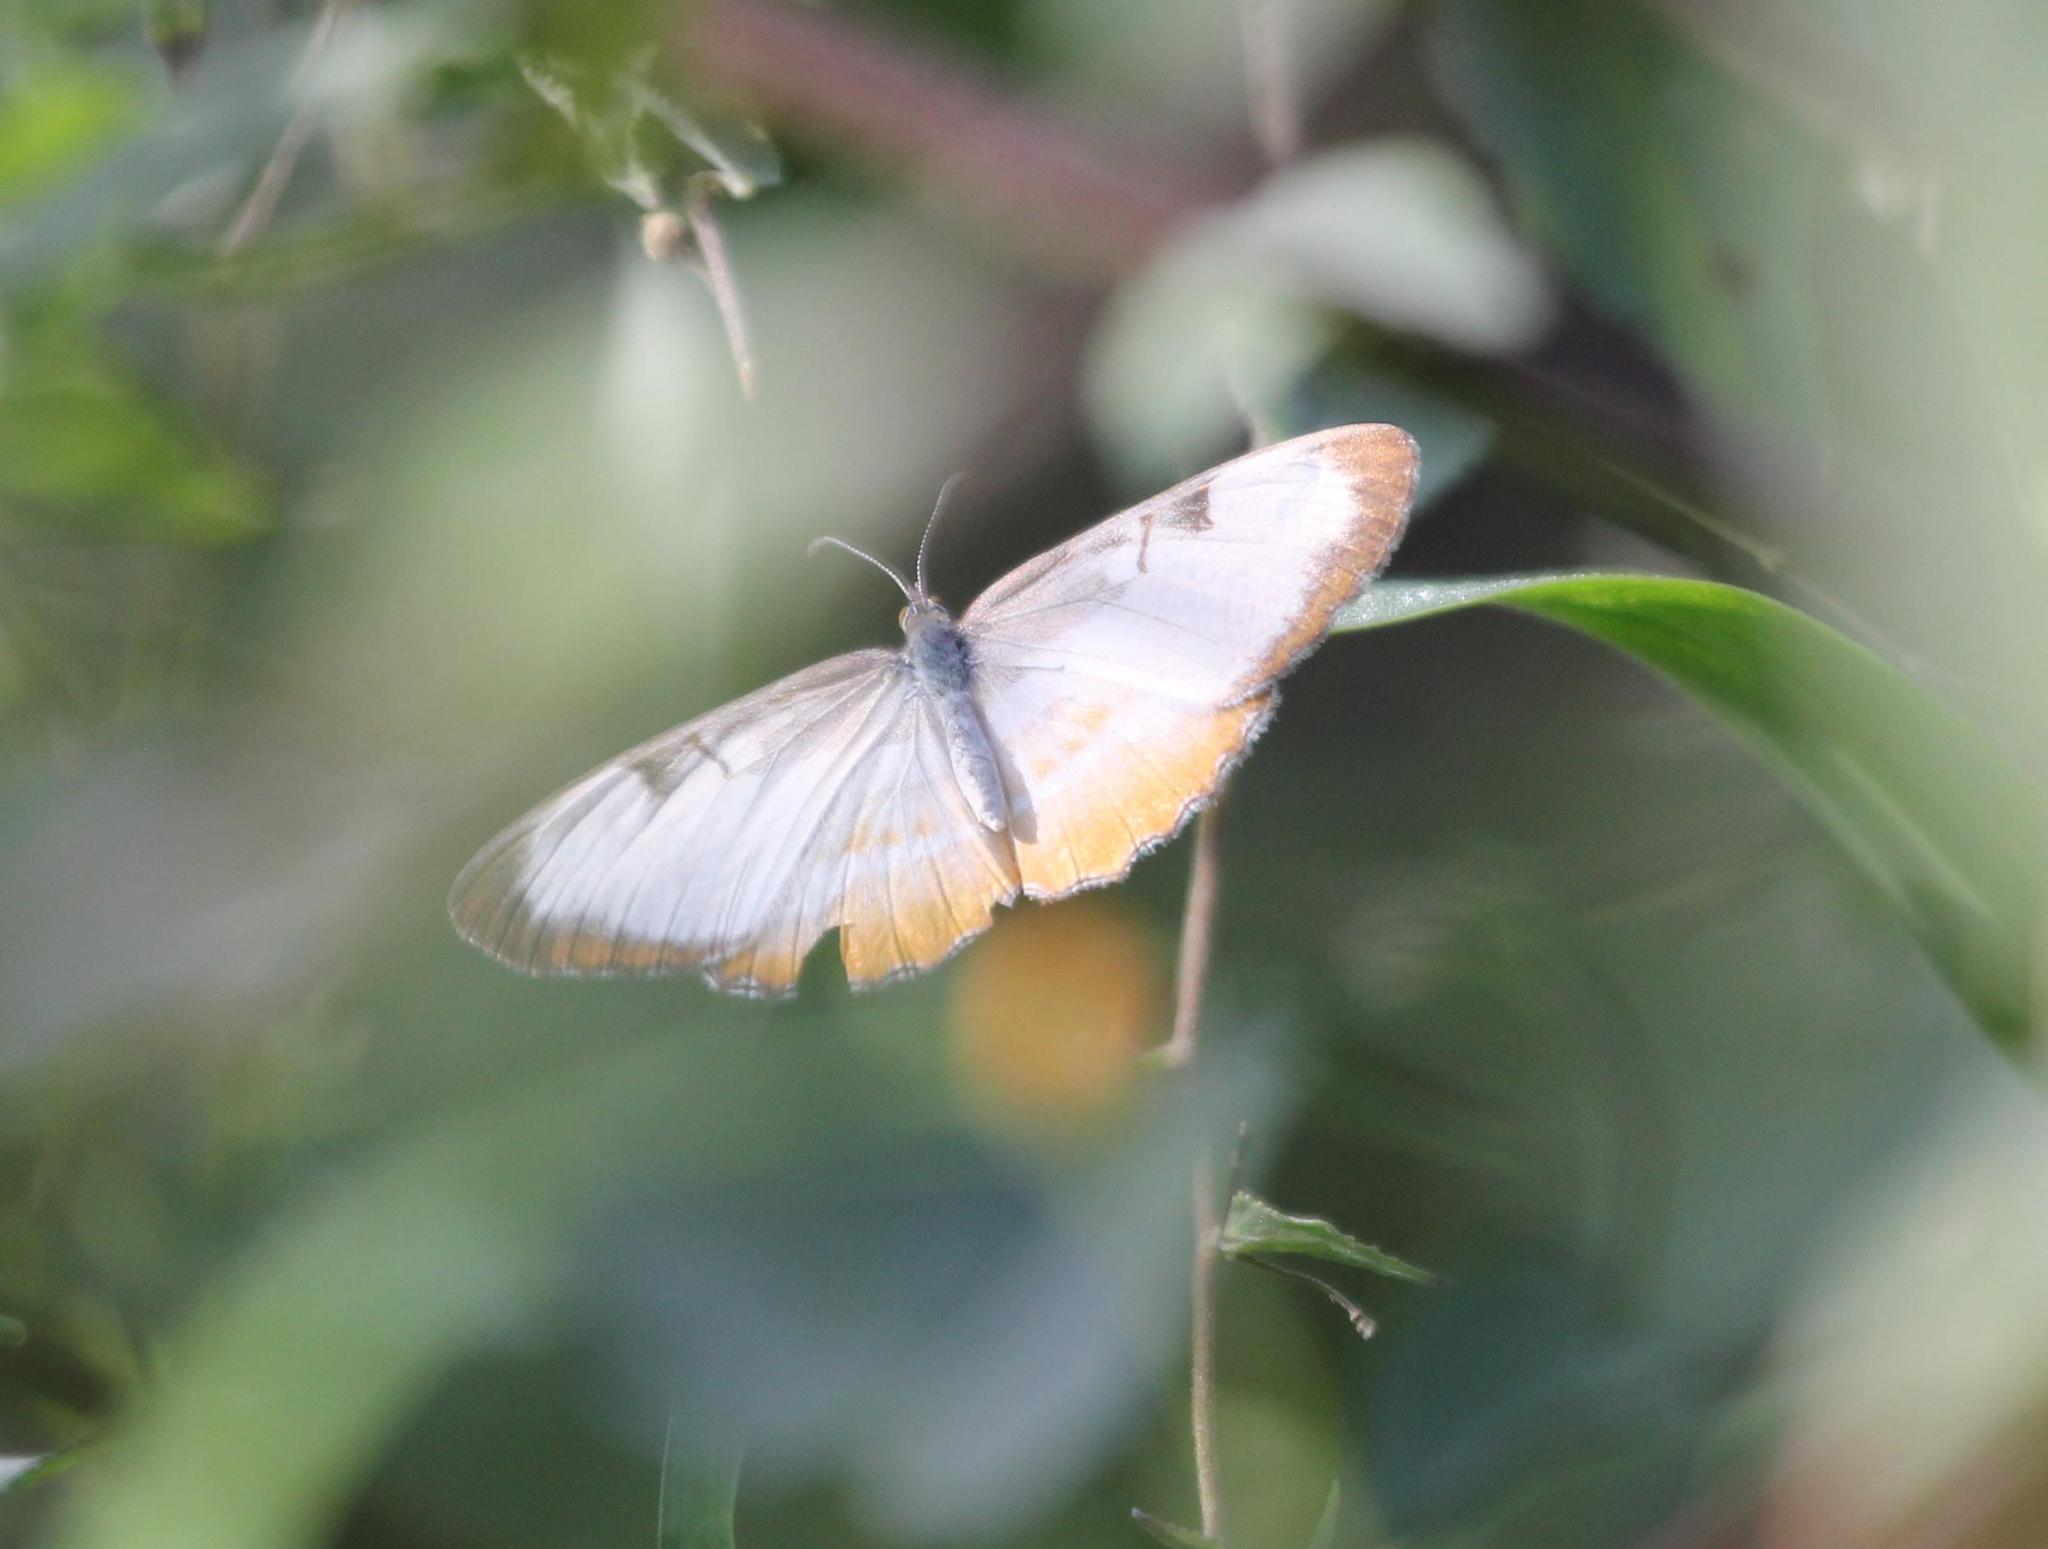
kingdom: Animalia
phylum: Arthropoda
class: Insecta
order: Lepidoptera
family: Nymphalidae
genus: Mestra
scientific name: Mestra amymone
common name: Common mestra
